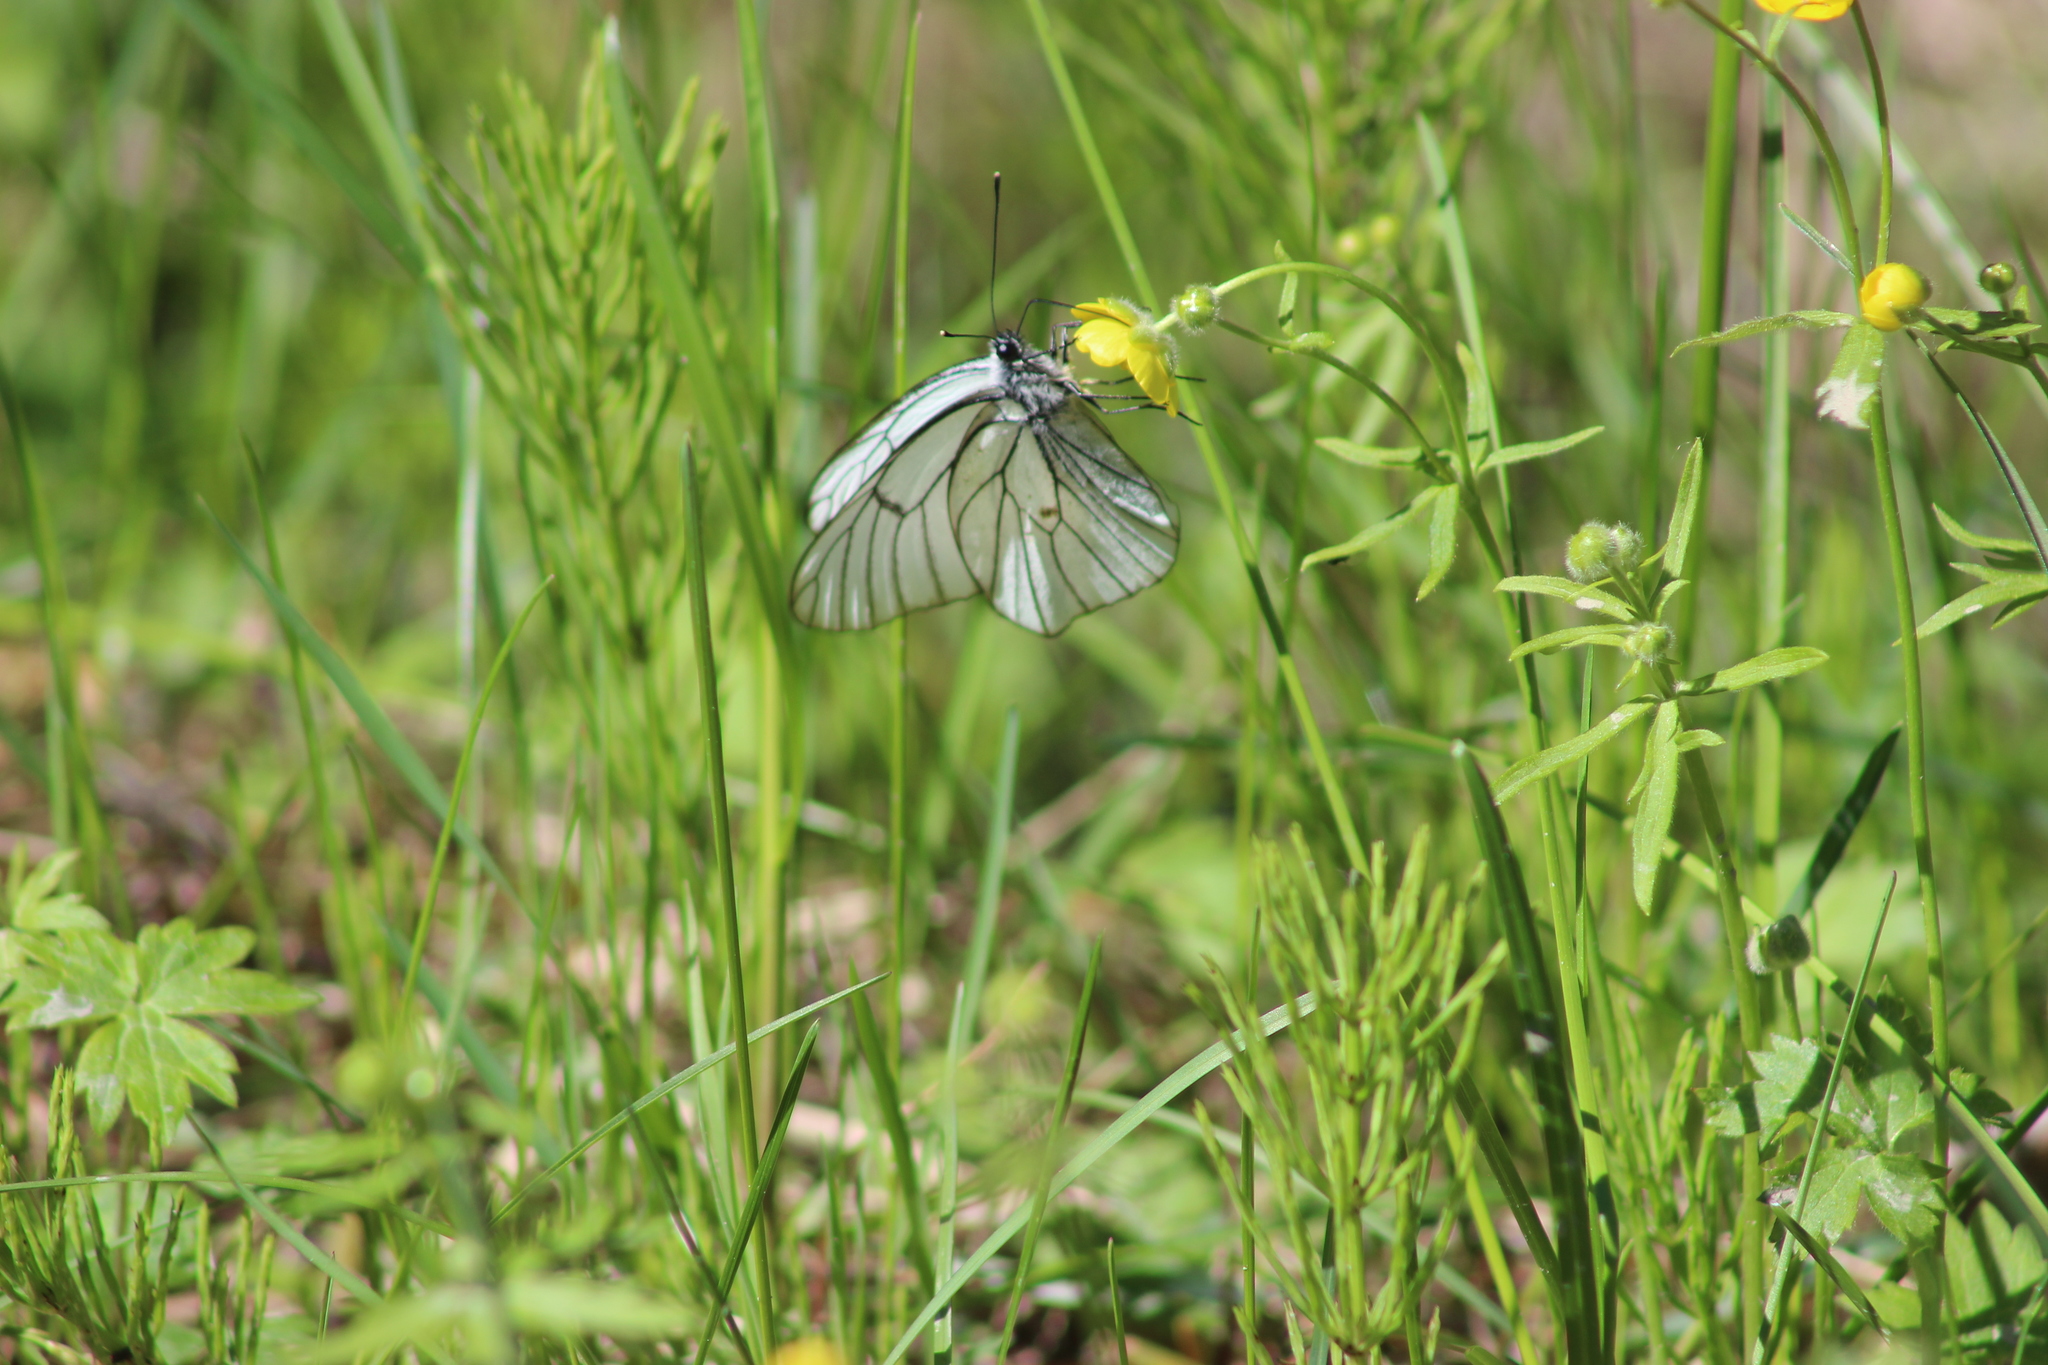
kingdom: Animalia
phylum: Arthropoda
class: Insecta
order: Lepidoptera
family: Pieridae
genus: Aporia
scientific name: Aporia crataegi
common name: Black-veined white
